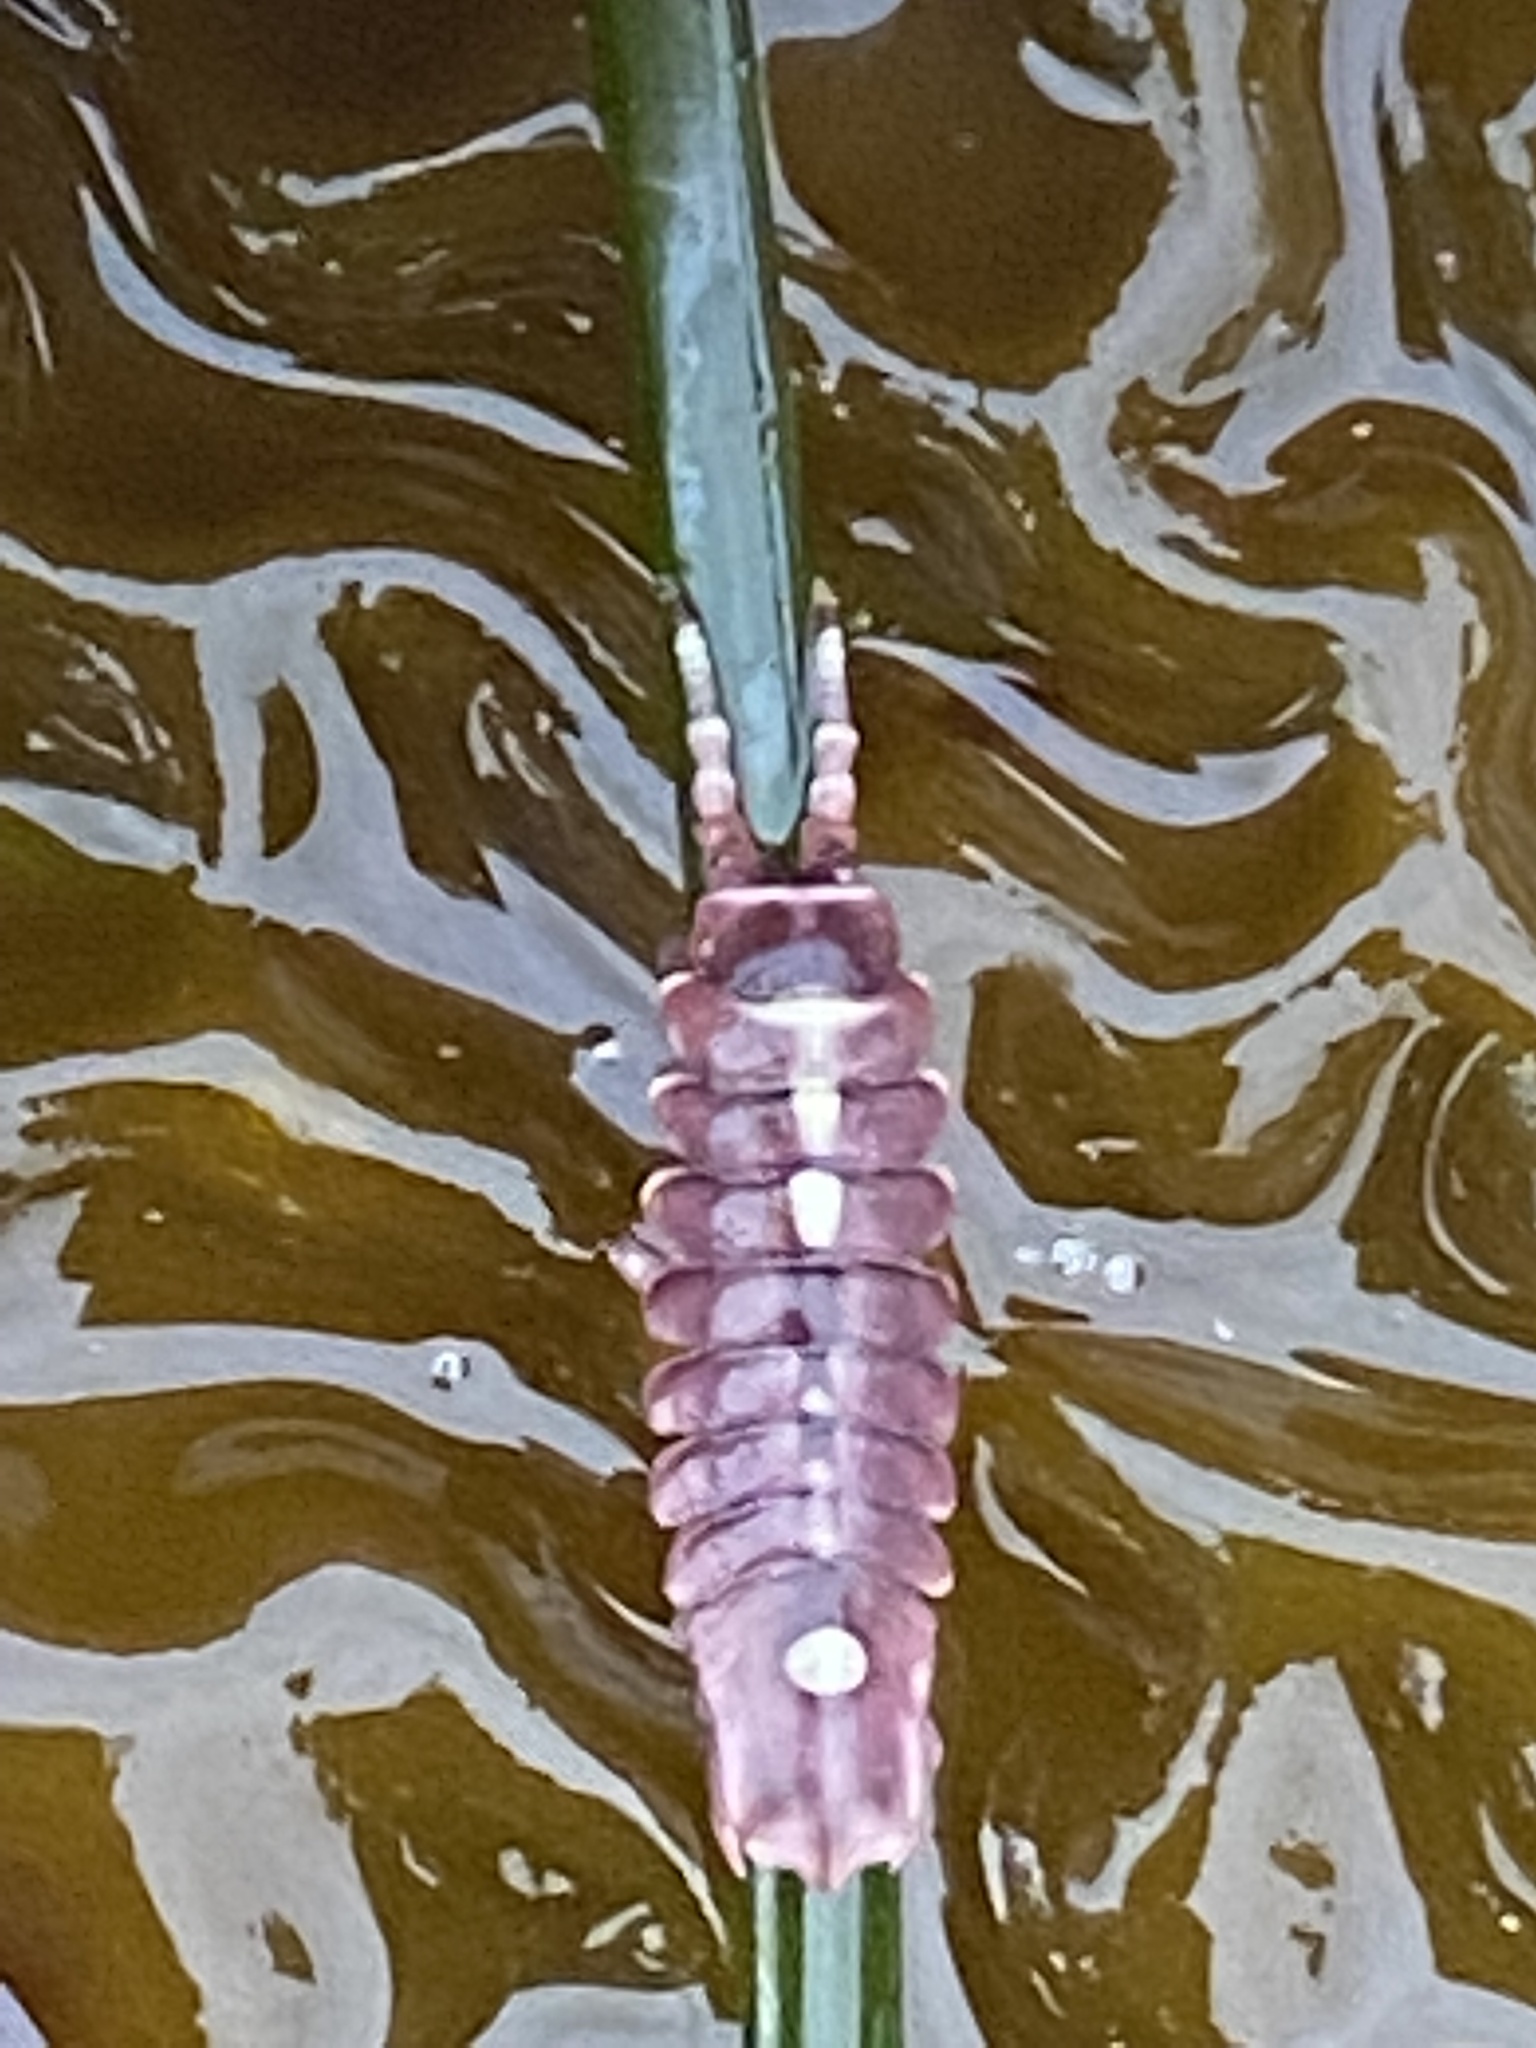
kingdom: Animalia
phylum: Arthropoda
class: Malacostraca
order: Isopoda
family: Idoteidae
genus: Pentidotea
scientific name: Pentidotea schmitti
